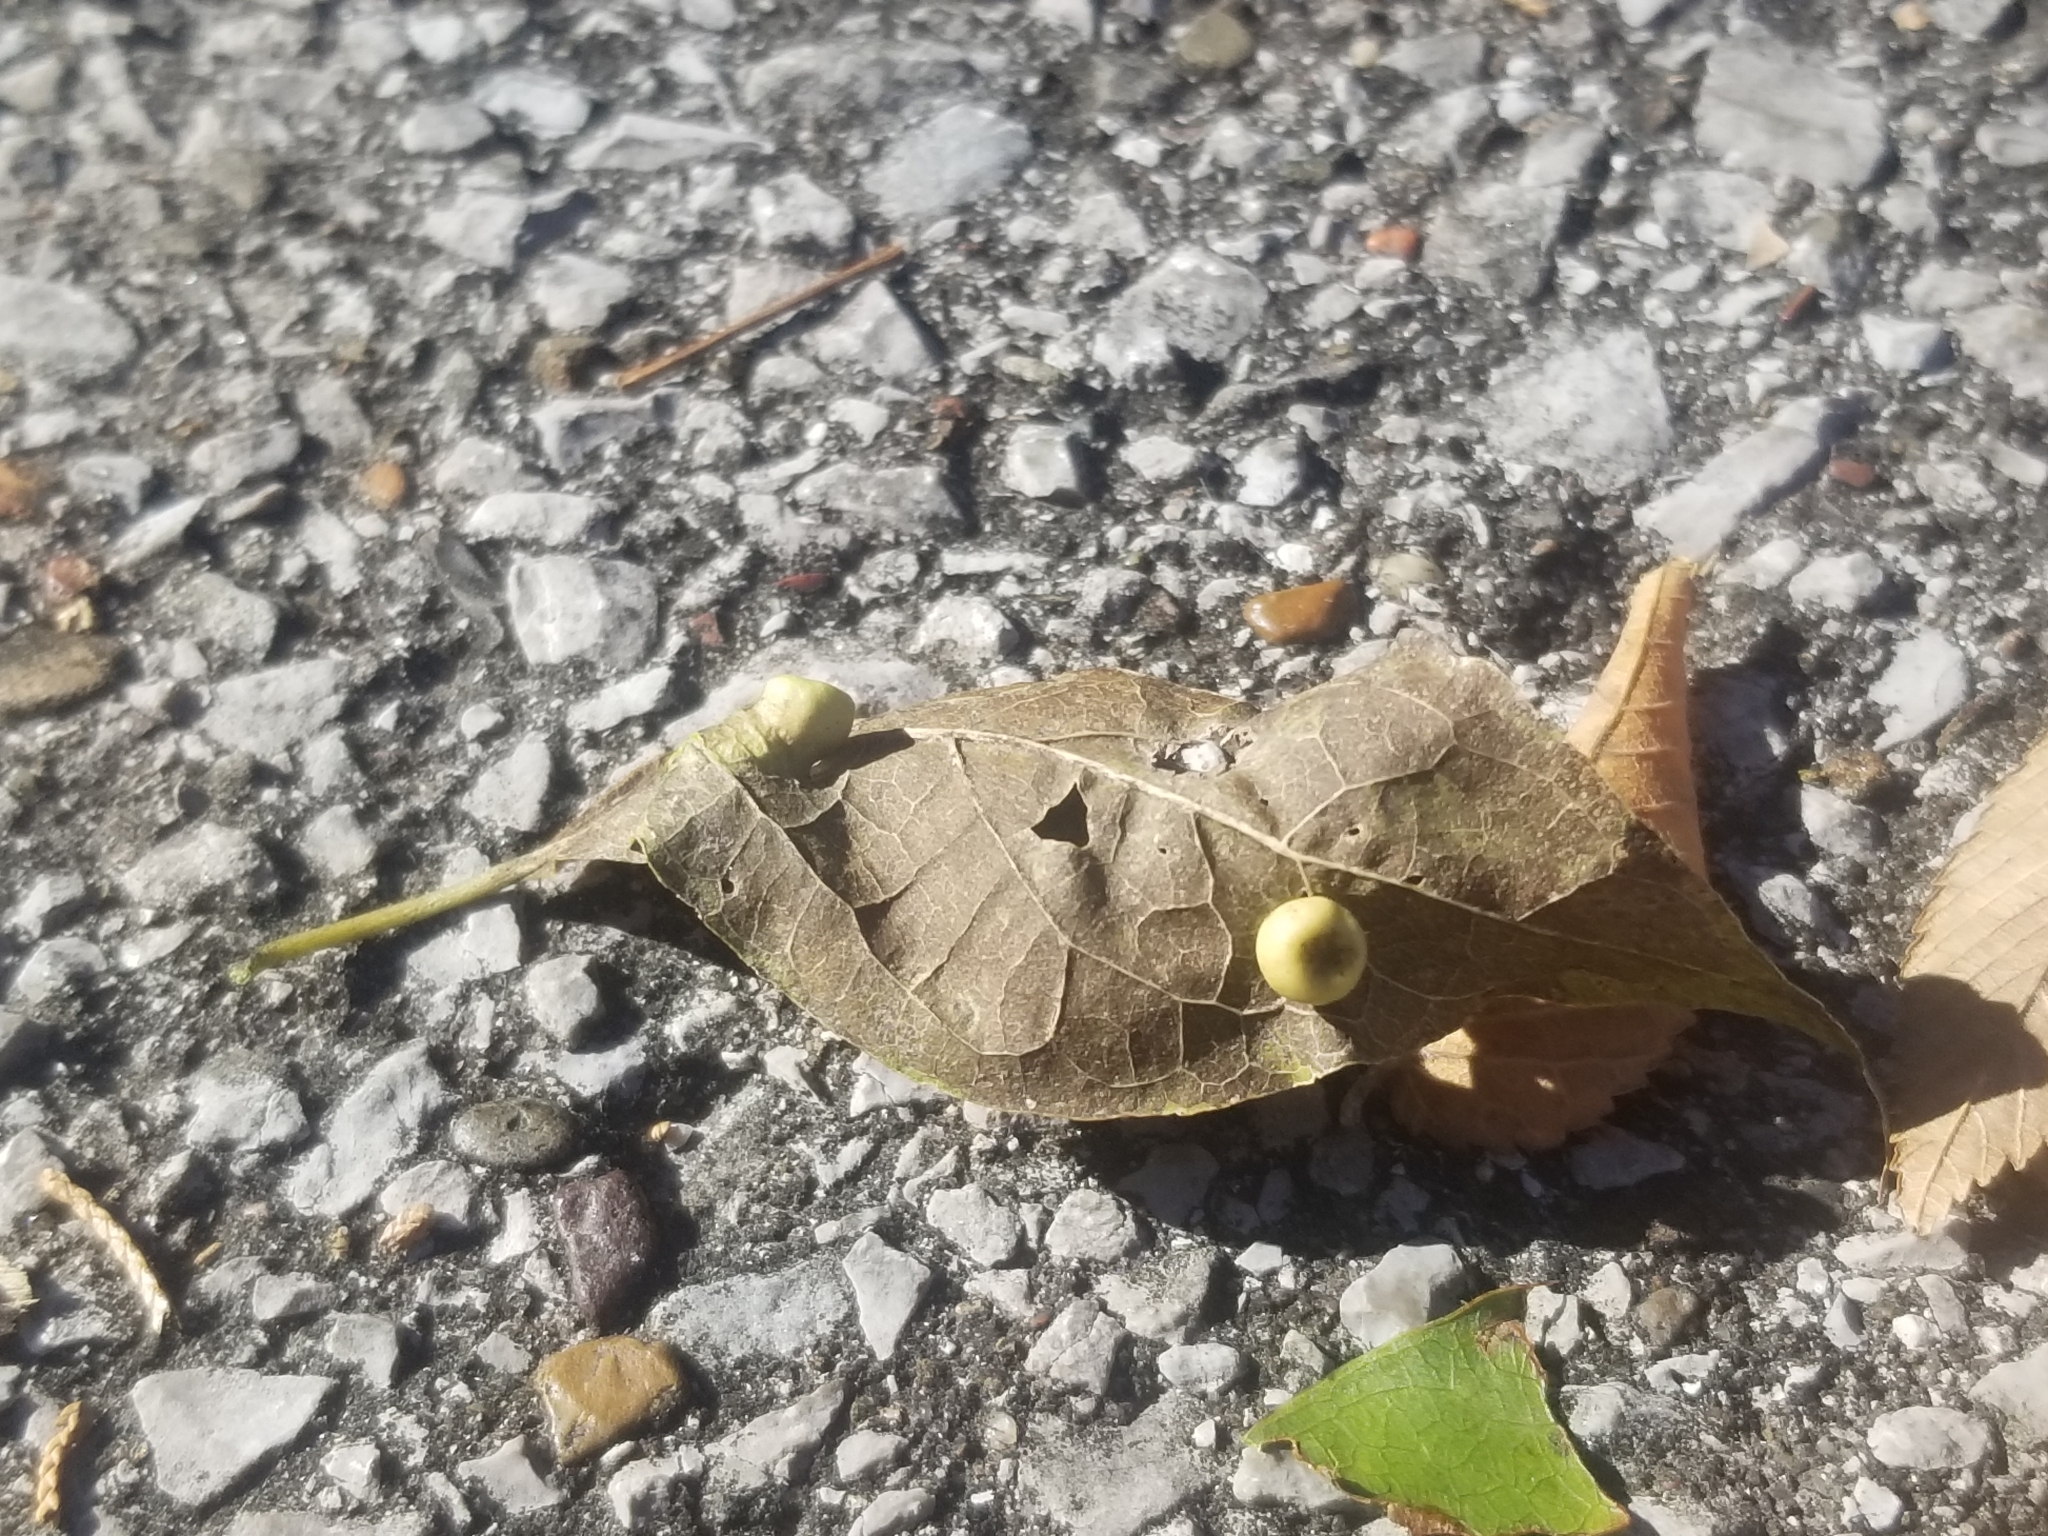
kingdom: Animalia
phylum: Arthropoda
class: Insecta
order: Hemiptera
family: Aphalaridae
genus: Pachypsylla
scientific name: Pachypsylla celtidismamma
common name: Hackberry nipplegall psyllid
